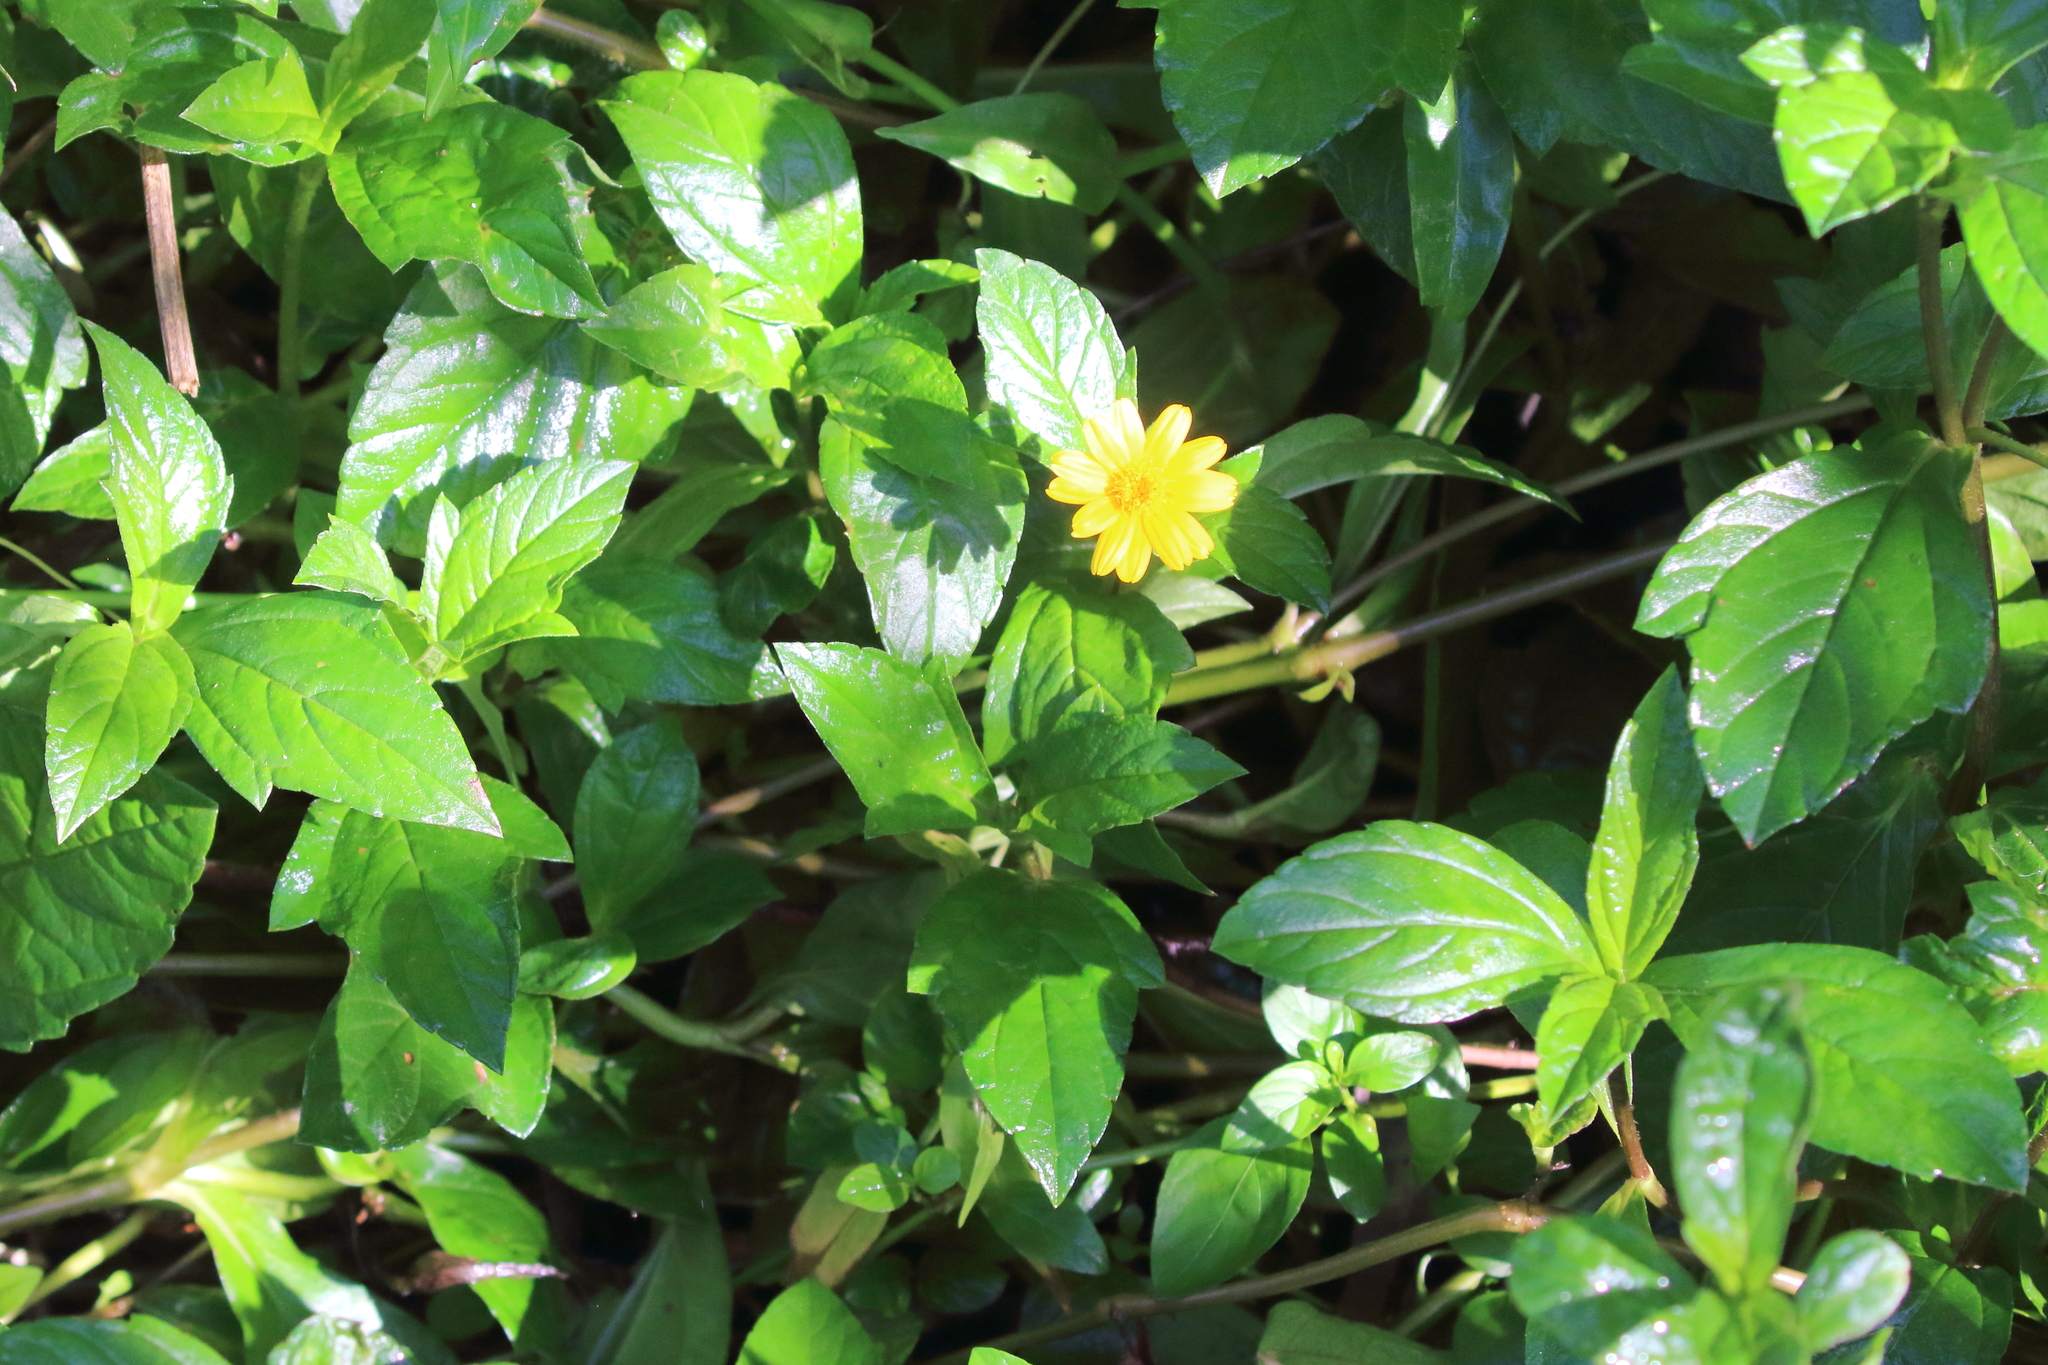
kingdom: Plantae
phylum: Tracheophyta
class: Magnoliopsida
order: Asterales
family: Asteraceae
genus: Sphagneticola
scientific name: Sphagneticola trilobata
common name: Bay biscayne creeping-oxeye
